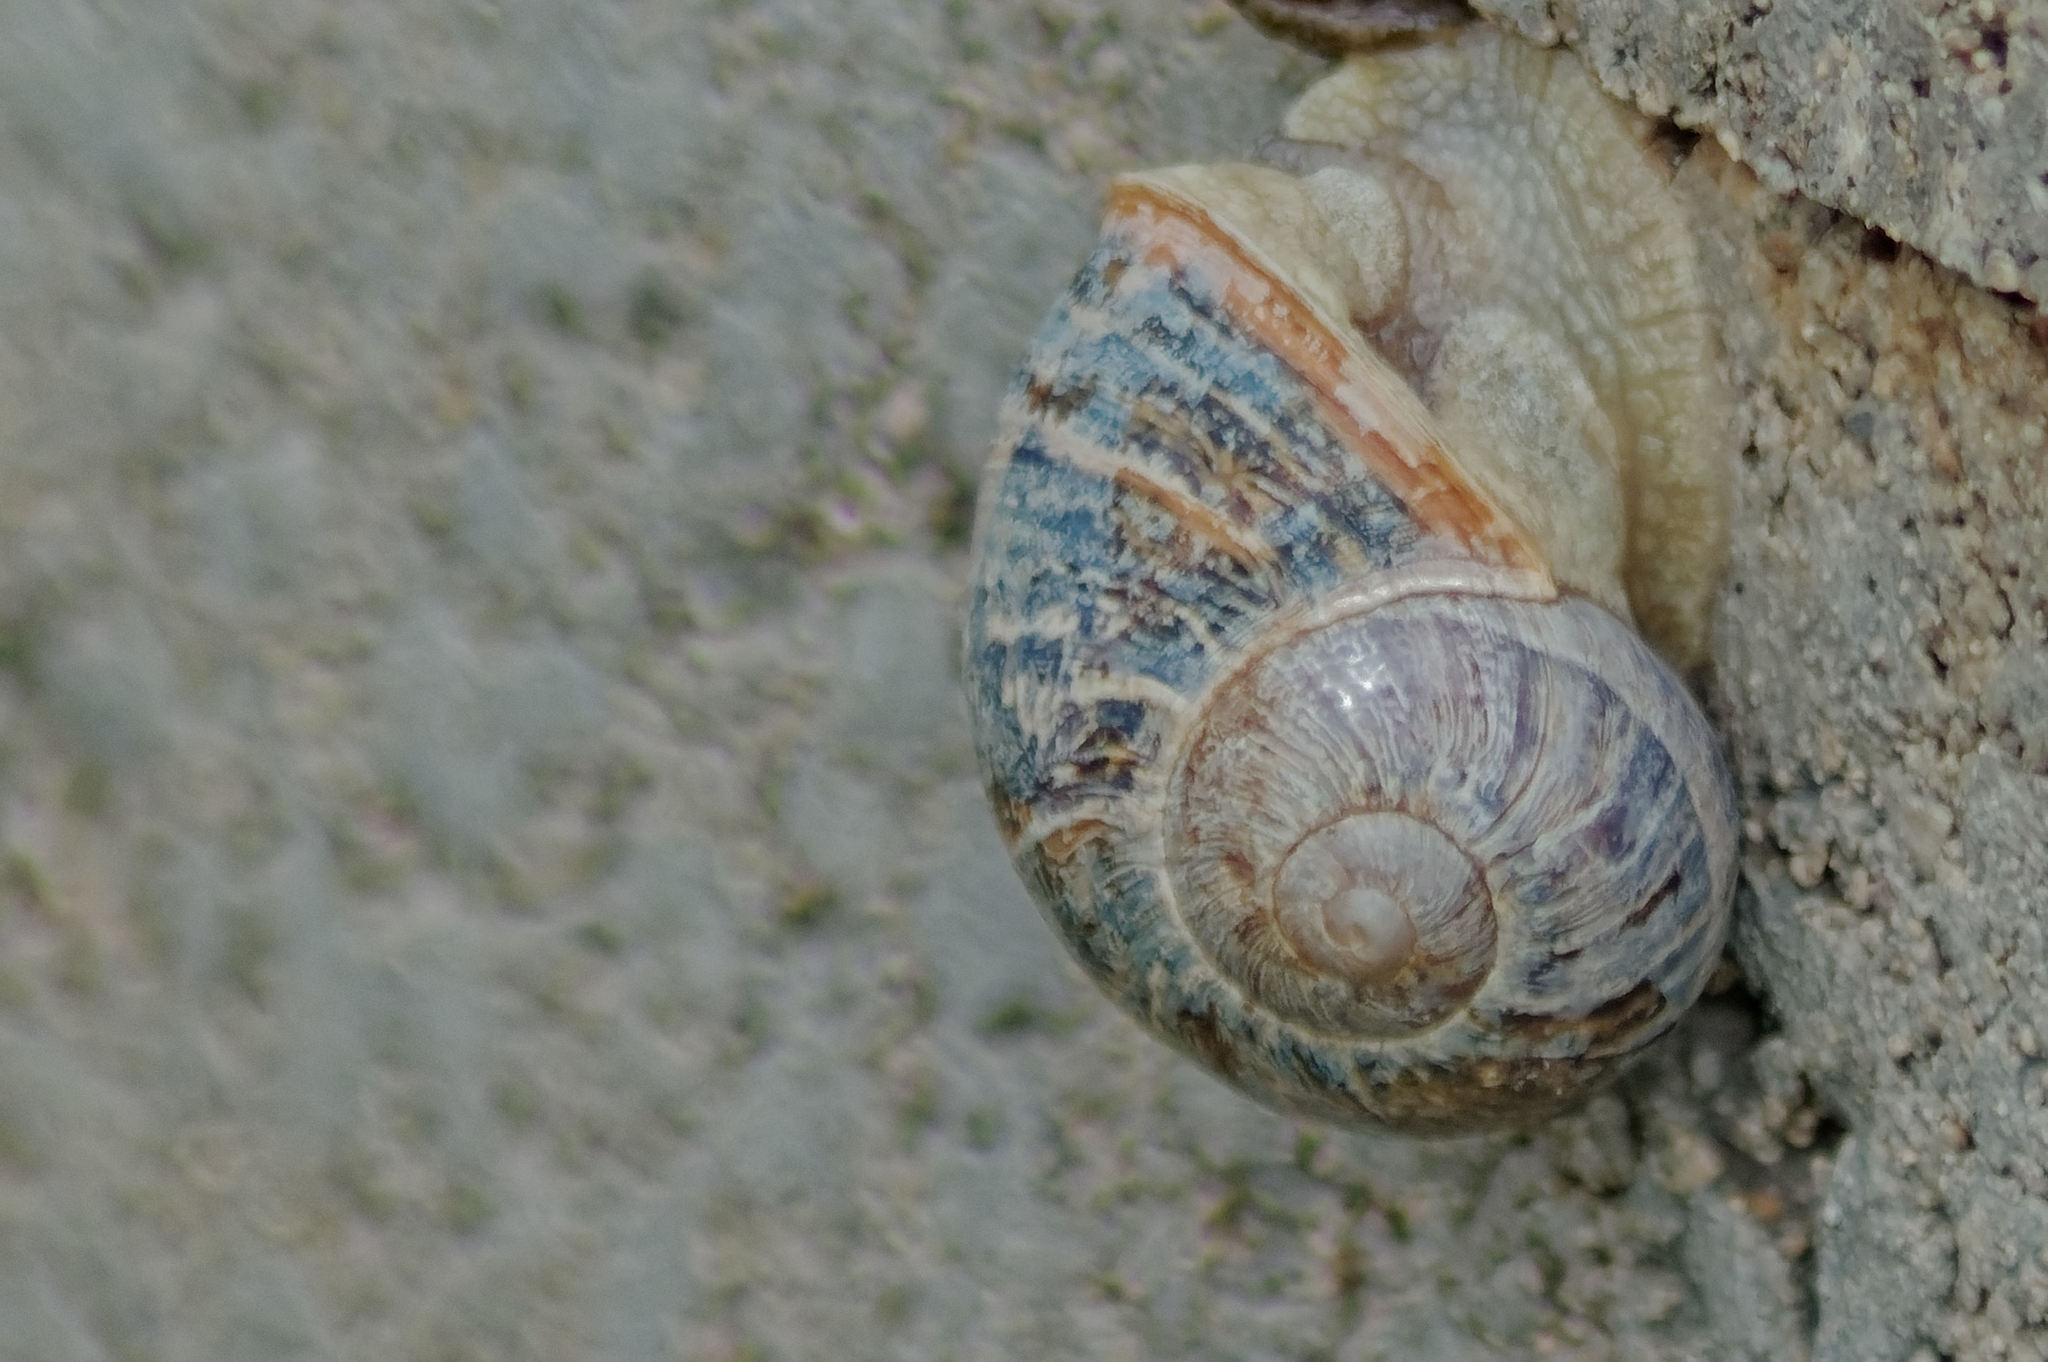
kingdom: Animalia
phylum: Mollusca
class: Gastropoda
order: Stylommatophora
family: Helicidae
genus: Cornu
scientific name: Cornu aspersum
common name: Brown garden snail
